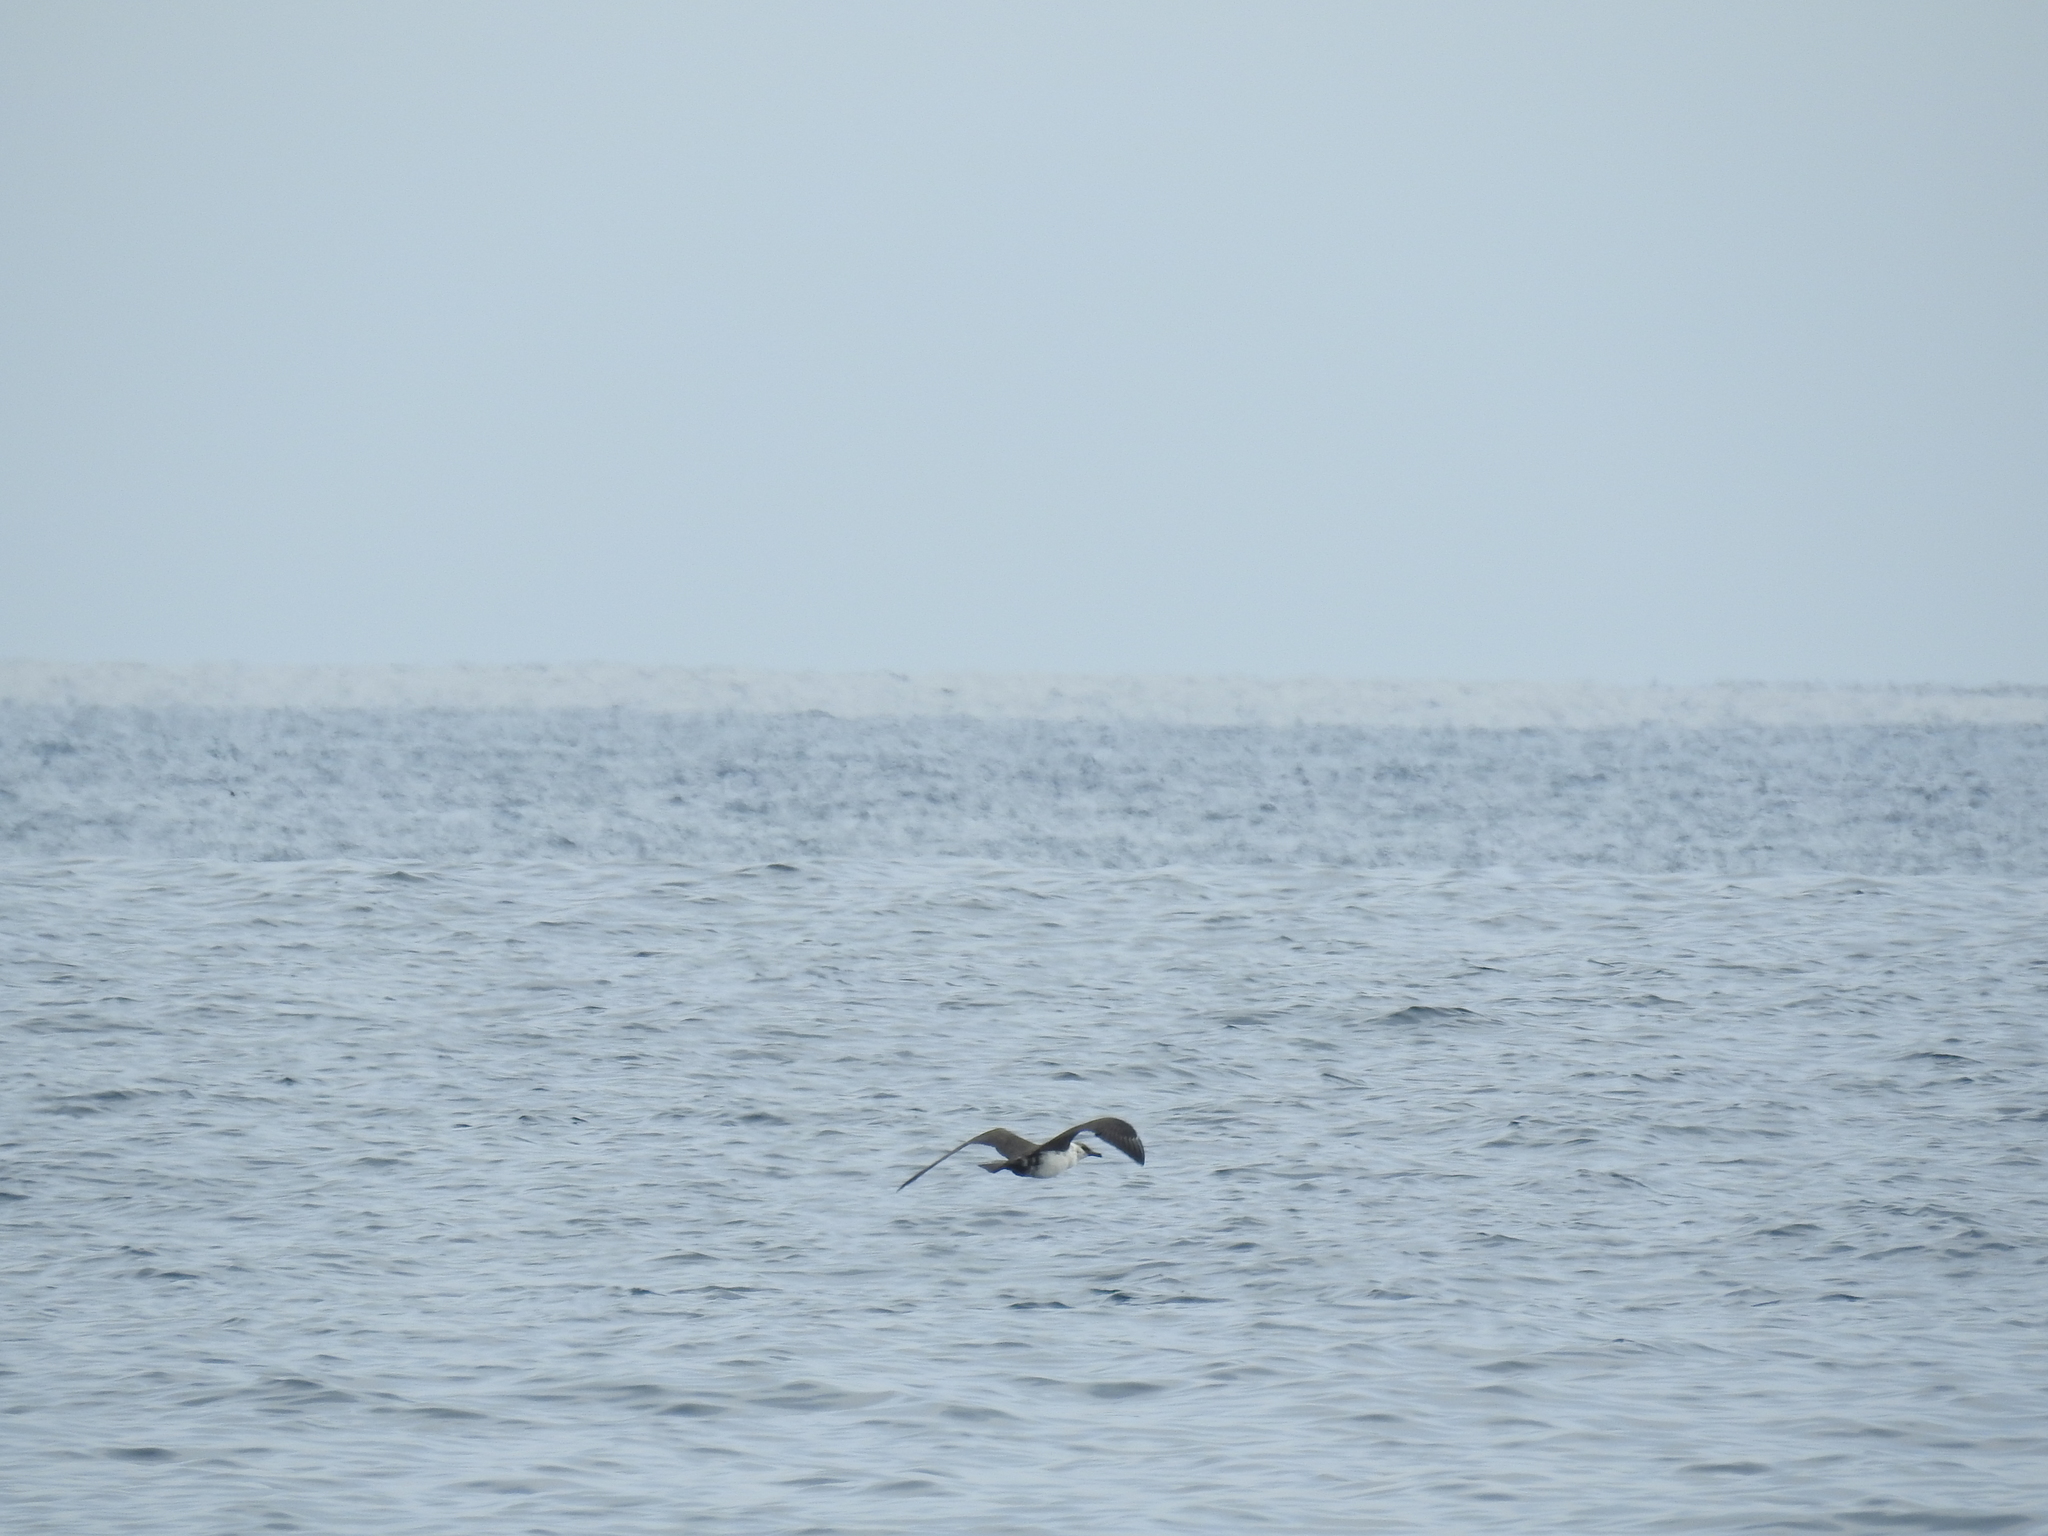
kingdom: Animalia
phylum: Chordata
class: Aves
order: Charadriiformes
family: Stercorariidae
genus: Stercorarius
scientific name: Stercorarius pomarinus
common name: Pomarine jaeger
